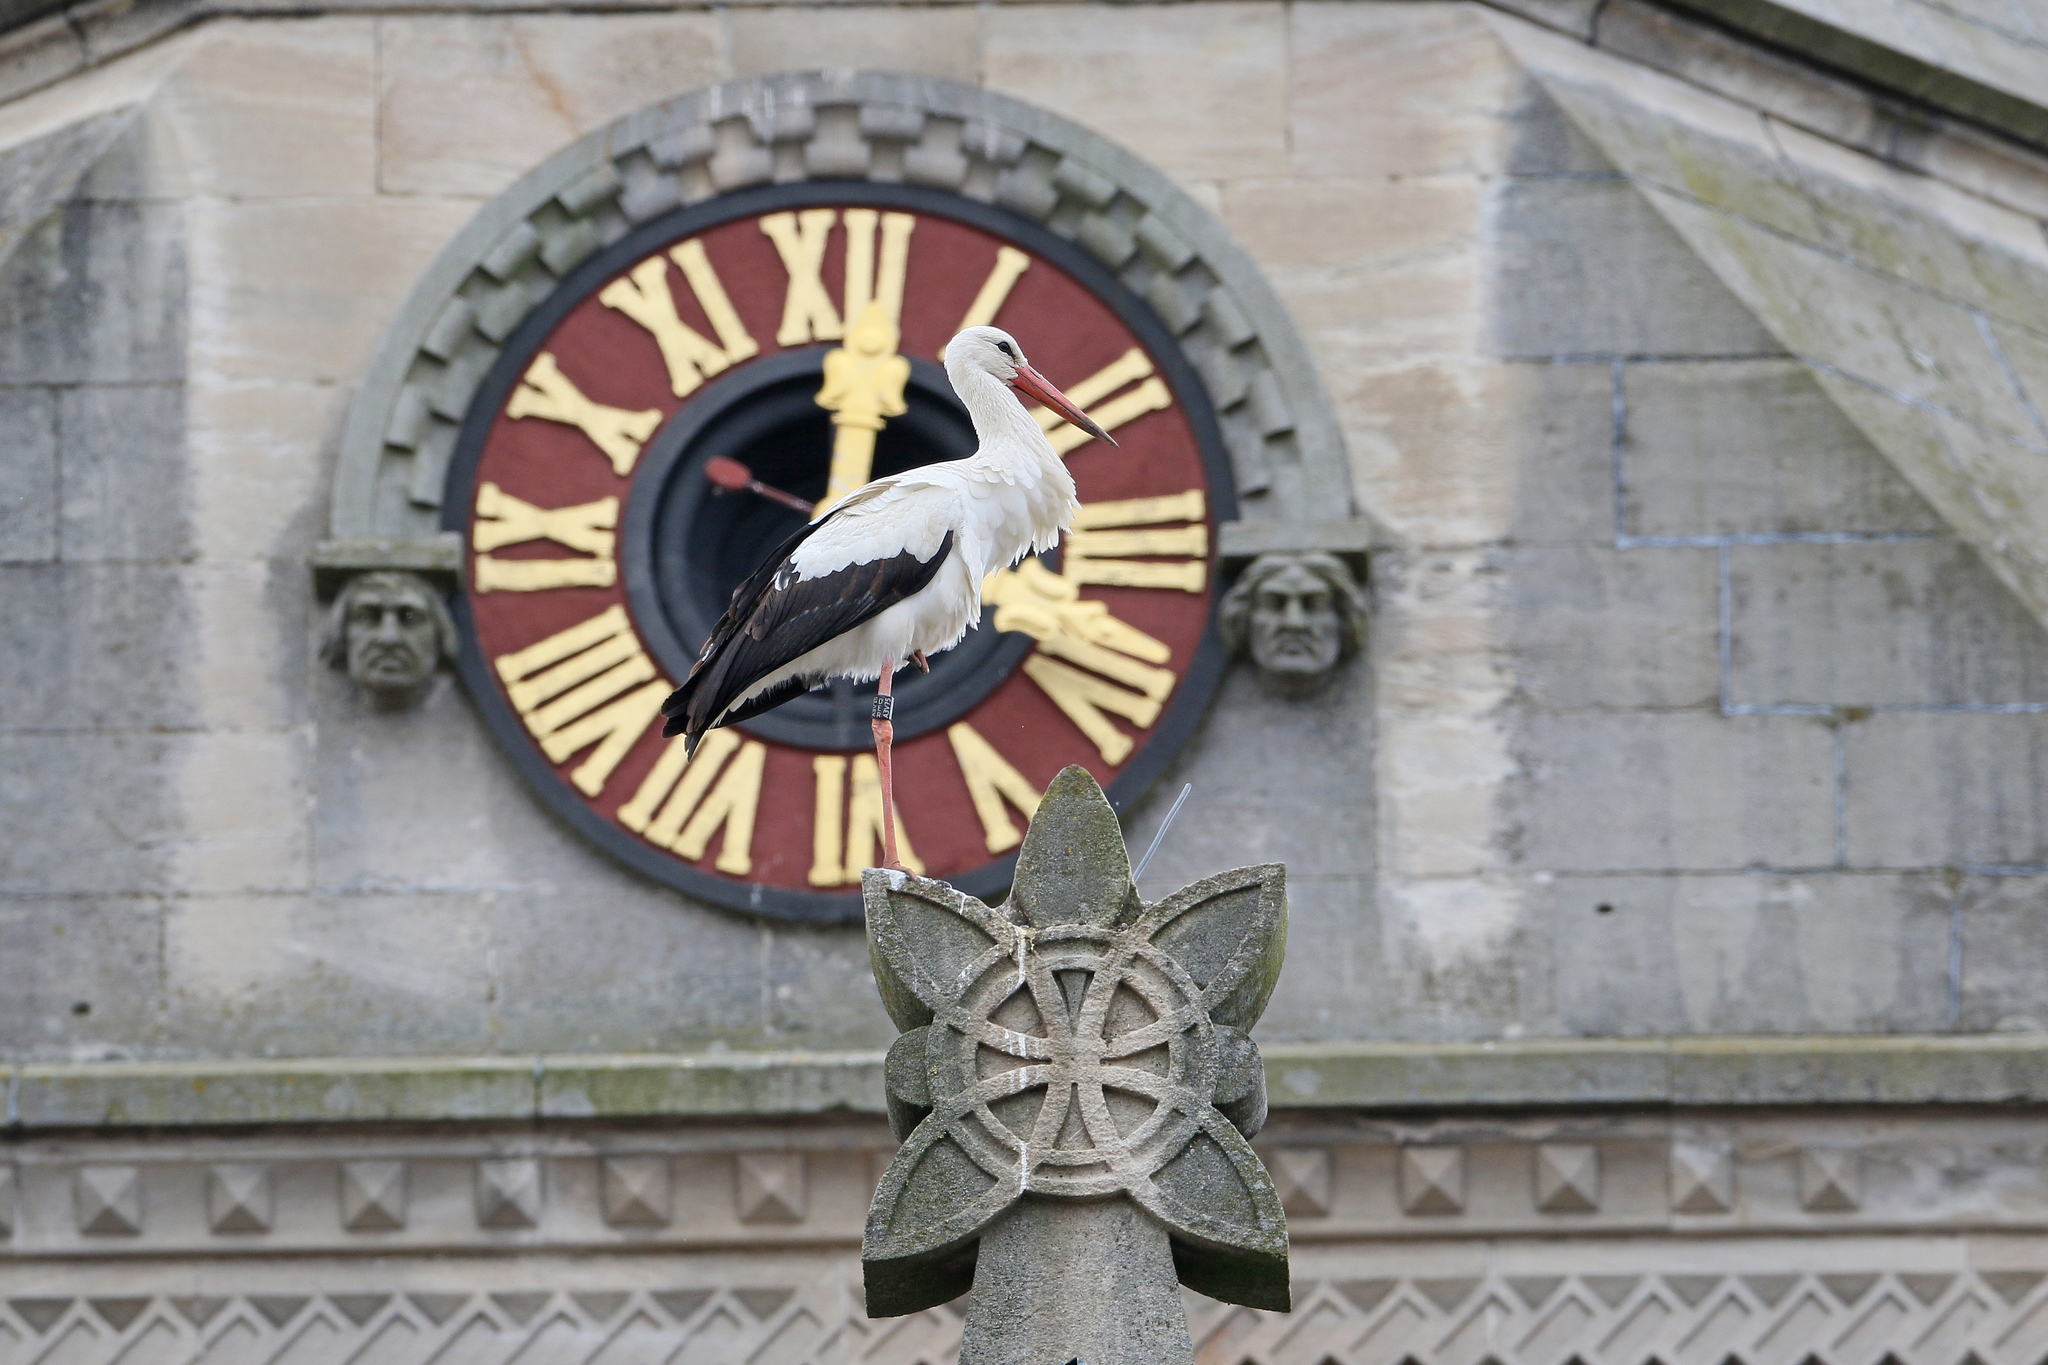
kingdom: Animalia
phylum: Chordata
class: Aves
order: Ciconiiformes
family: Ciconiidae
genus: Ciconia
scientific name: Ciconia ciconia
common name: White stork
